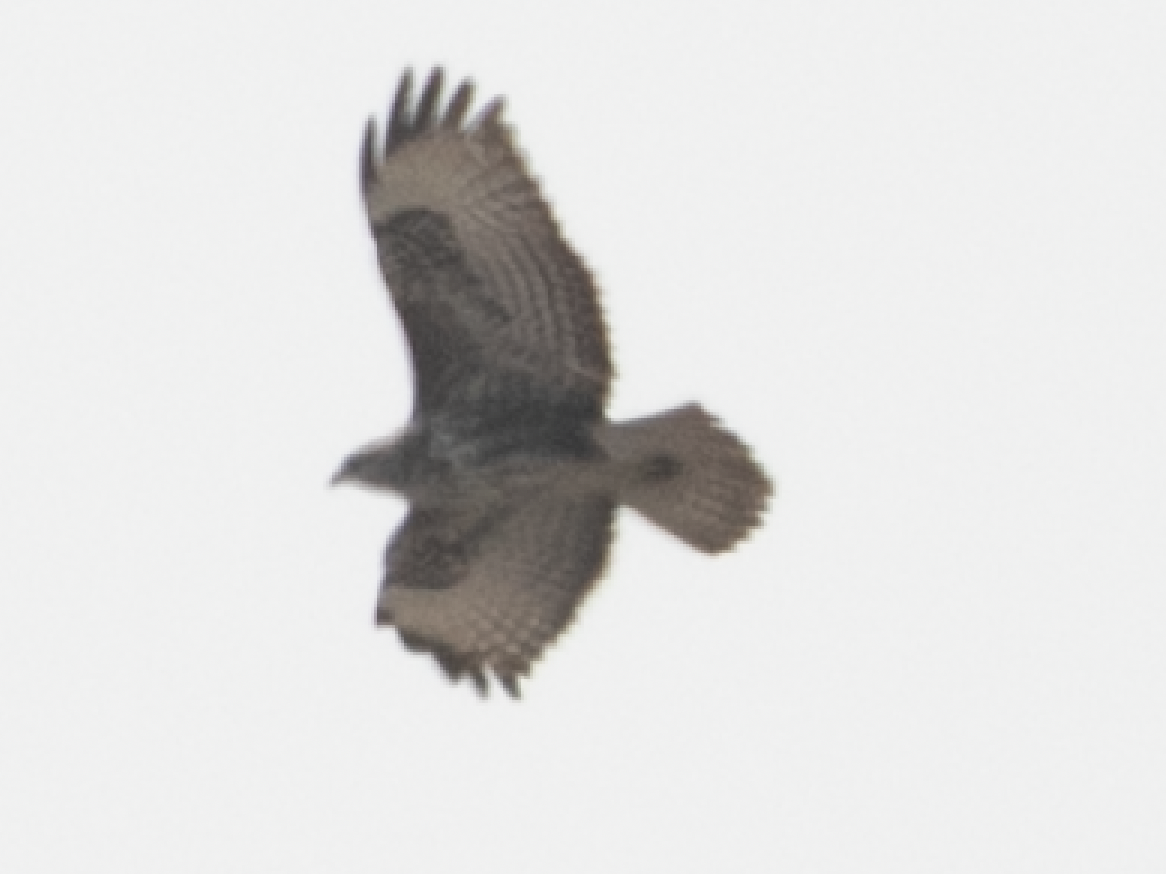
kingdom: Animalia
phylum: Chordata
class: Aves
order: Accipitriformes
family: Accipitridae
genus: Buteo
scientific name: Buteo buteo
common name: Common buzzard
